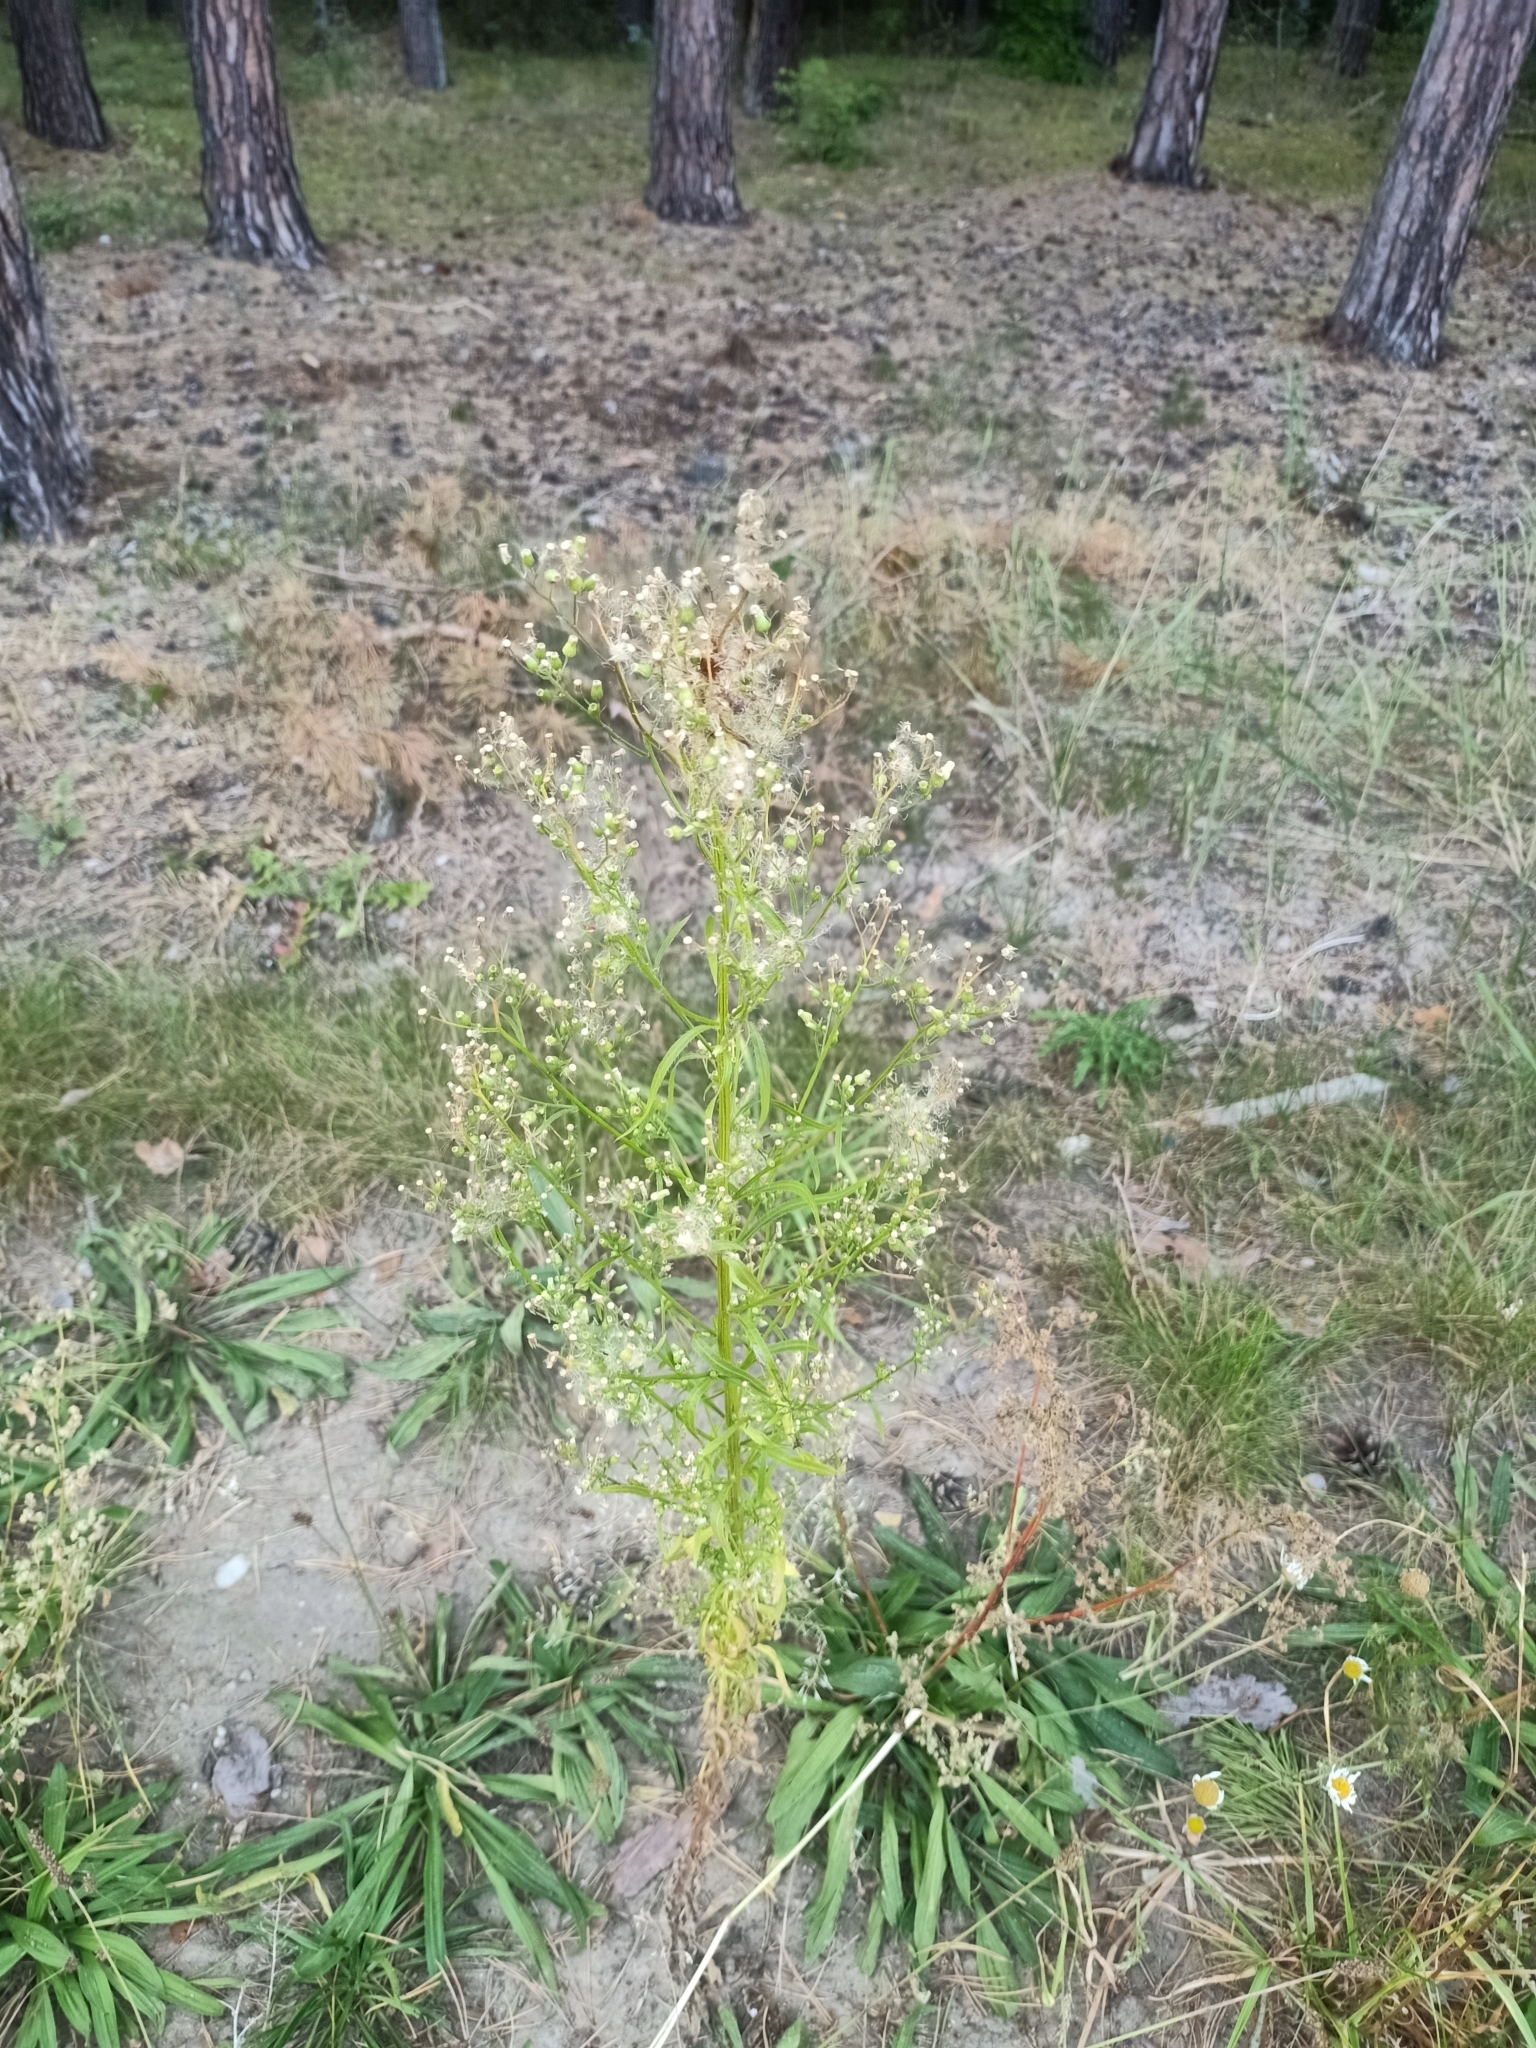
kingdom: Plantae
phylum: Tracheophyta
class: Magnoliopsida
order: Asterales
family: Asteraceae
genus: Erigeron
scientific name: Erigeron canadensis
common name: Canadian fleabane
